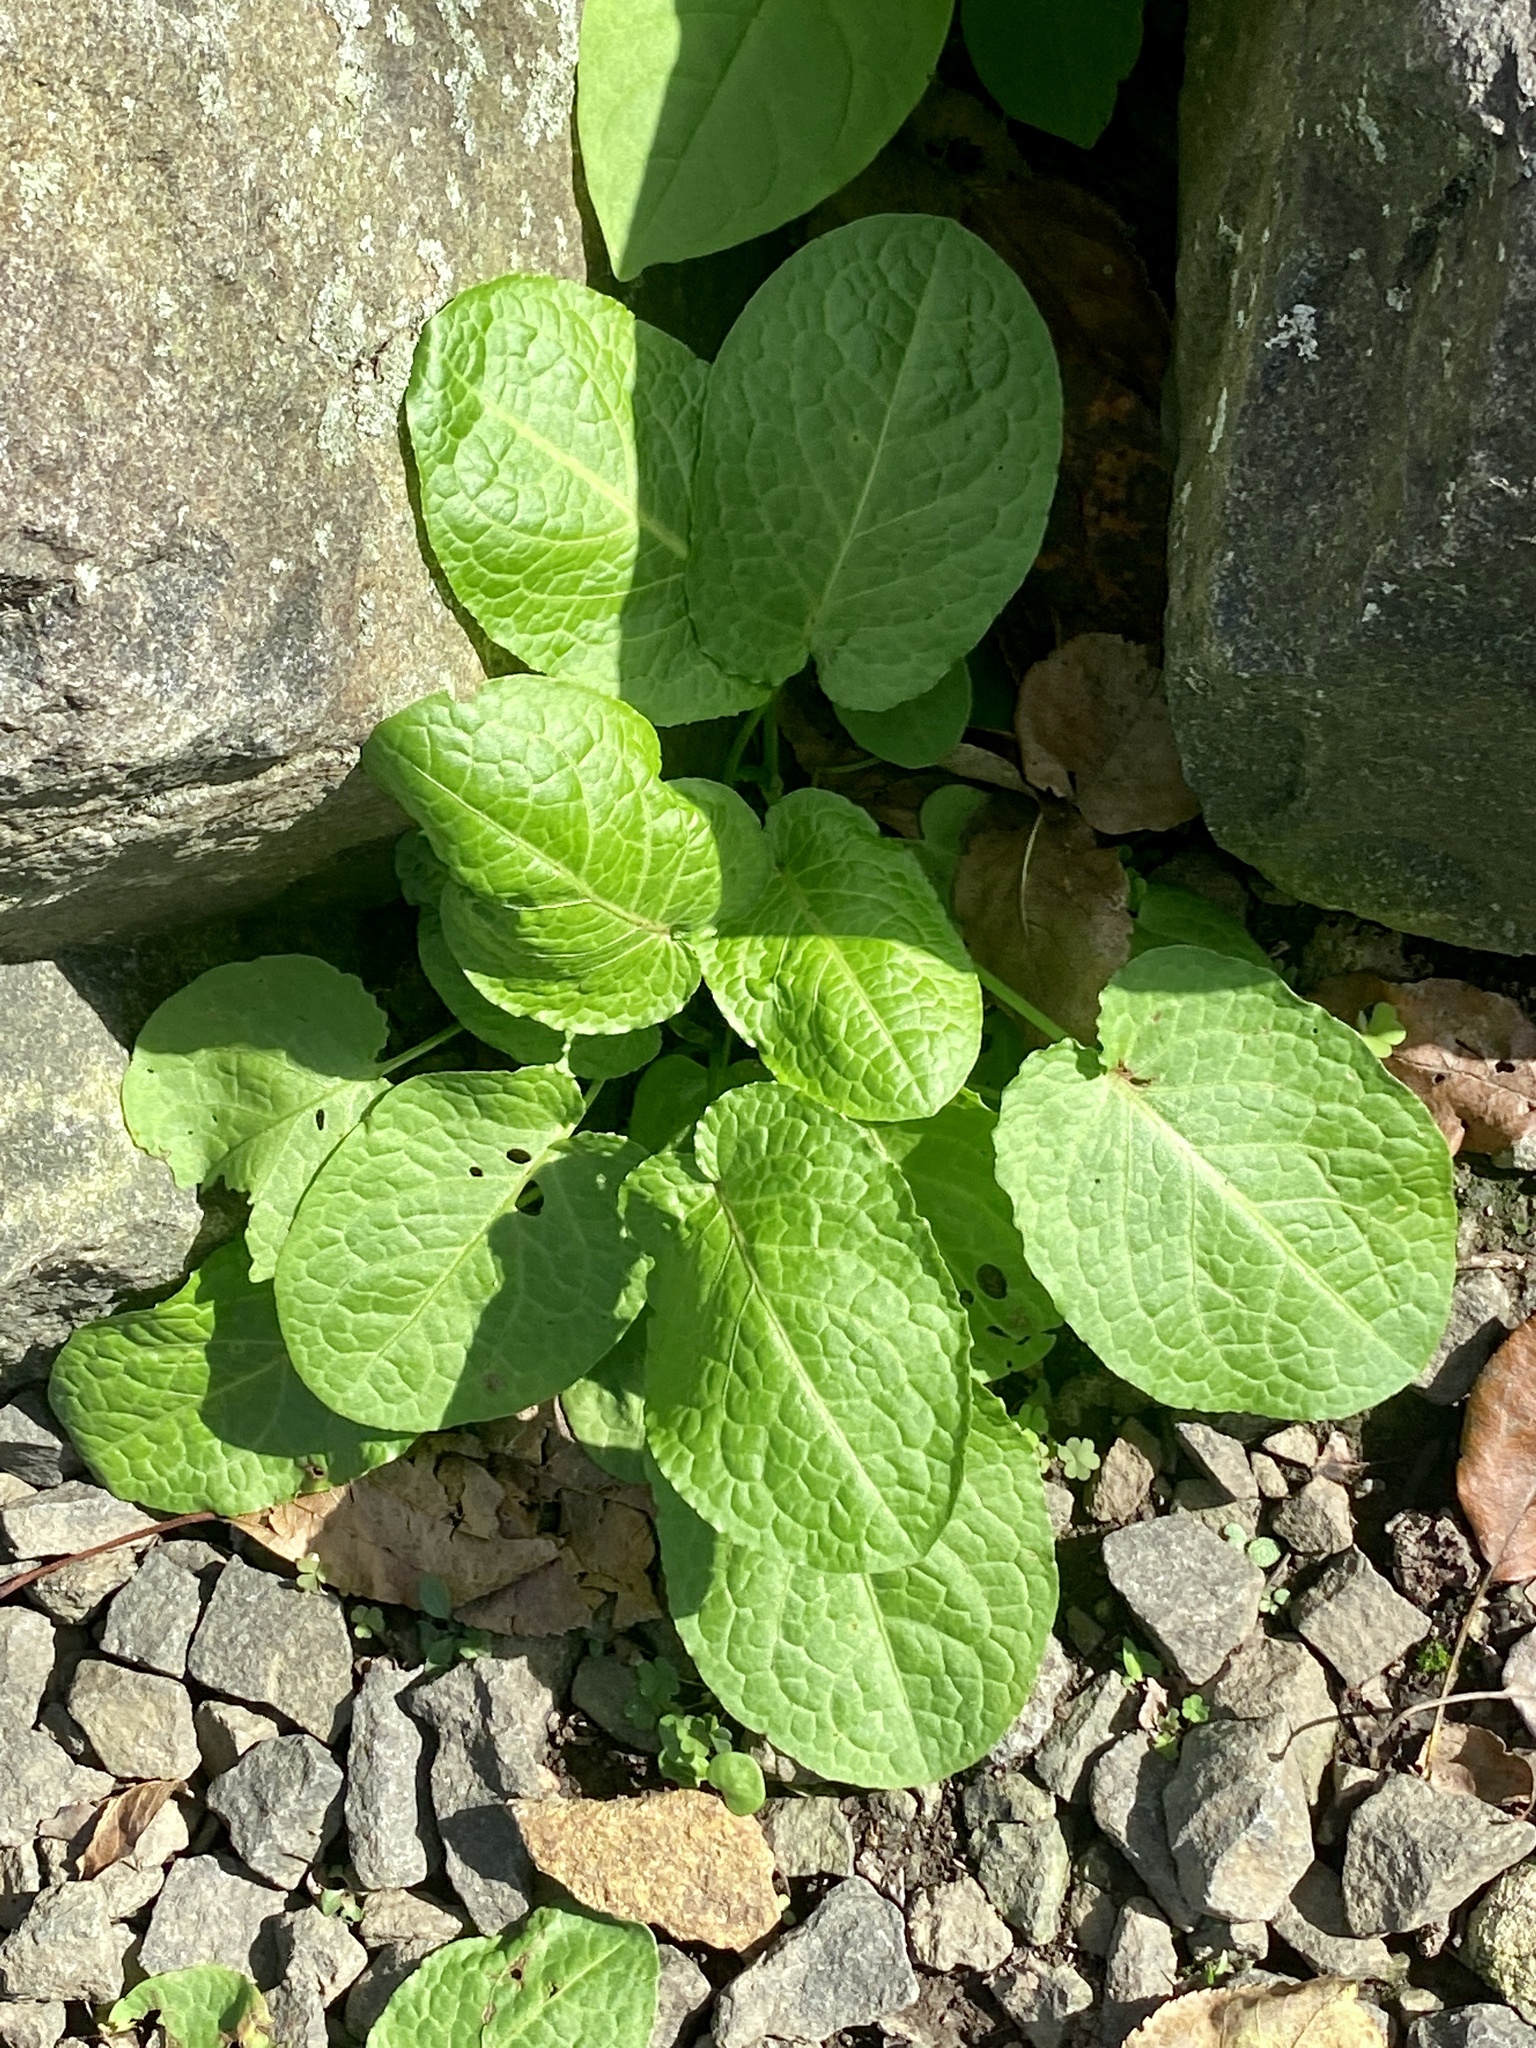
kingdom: Plantae
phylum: Tracheophyta
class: Magnoliopsida
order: Caryophyllales
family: Polygonaceae
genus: Rumex
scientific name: Rumex obtusifolius
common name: Bitter dock
